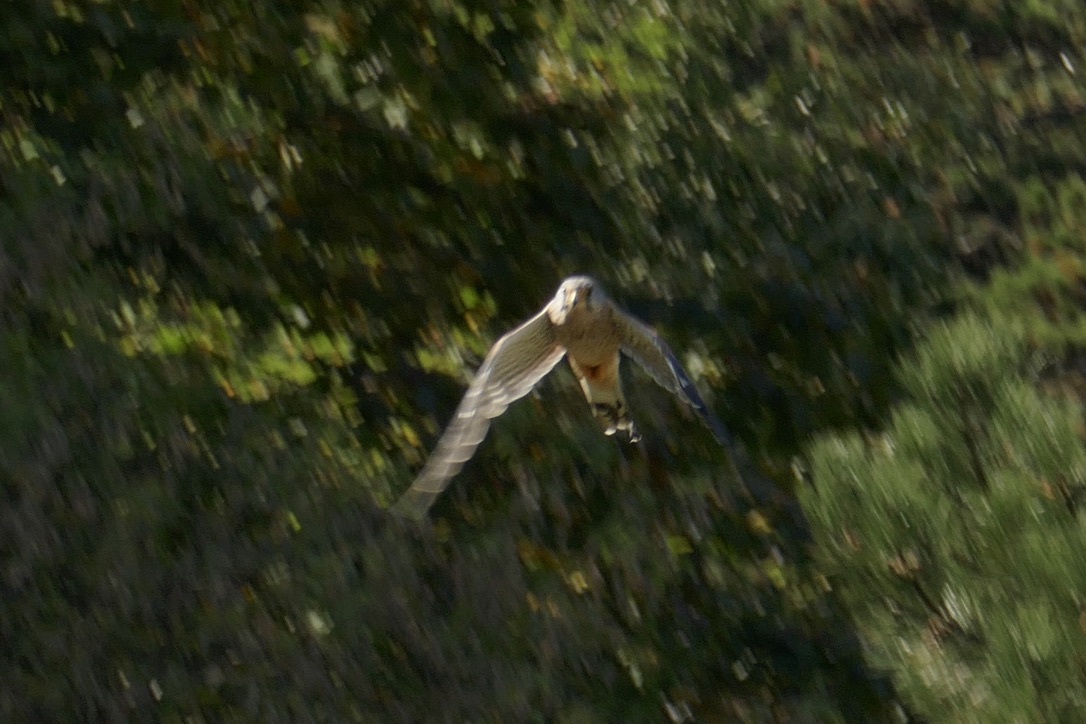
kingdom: Animalia
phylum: Chordata
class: Aves
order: Falconiformes
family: Falconidae
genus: Falco
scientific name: Falco tinnunculus
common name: Common kestrel
